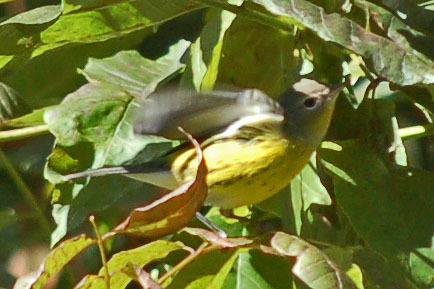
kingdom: Animalia
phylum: Chordata
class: Aves
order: Passeriformes
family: Parulidae
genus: Setophaga
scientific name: Setophaga magnolia
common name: Magnolia warbler
